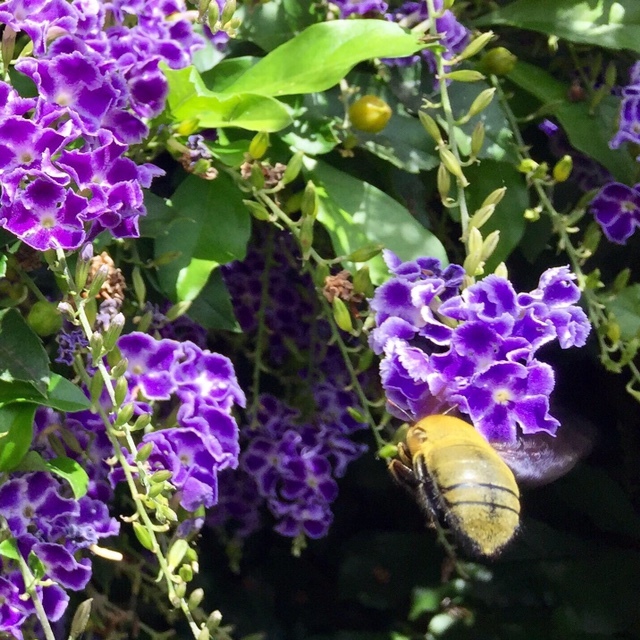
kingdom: Animalia
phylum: Arthropoda
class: Insecta
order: Hymenoptera
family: Apidae
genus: Xylocopa
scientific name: Xylocopa pubescens
